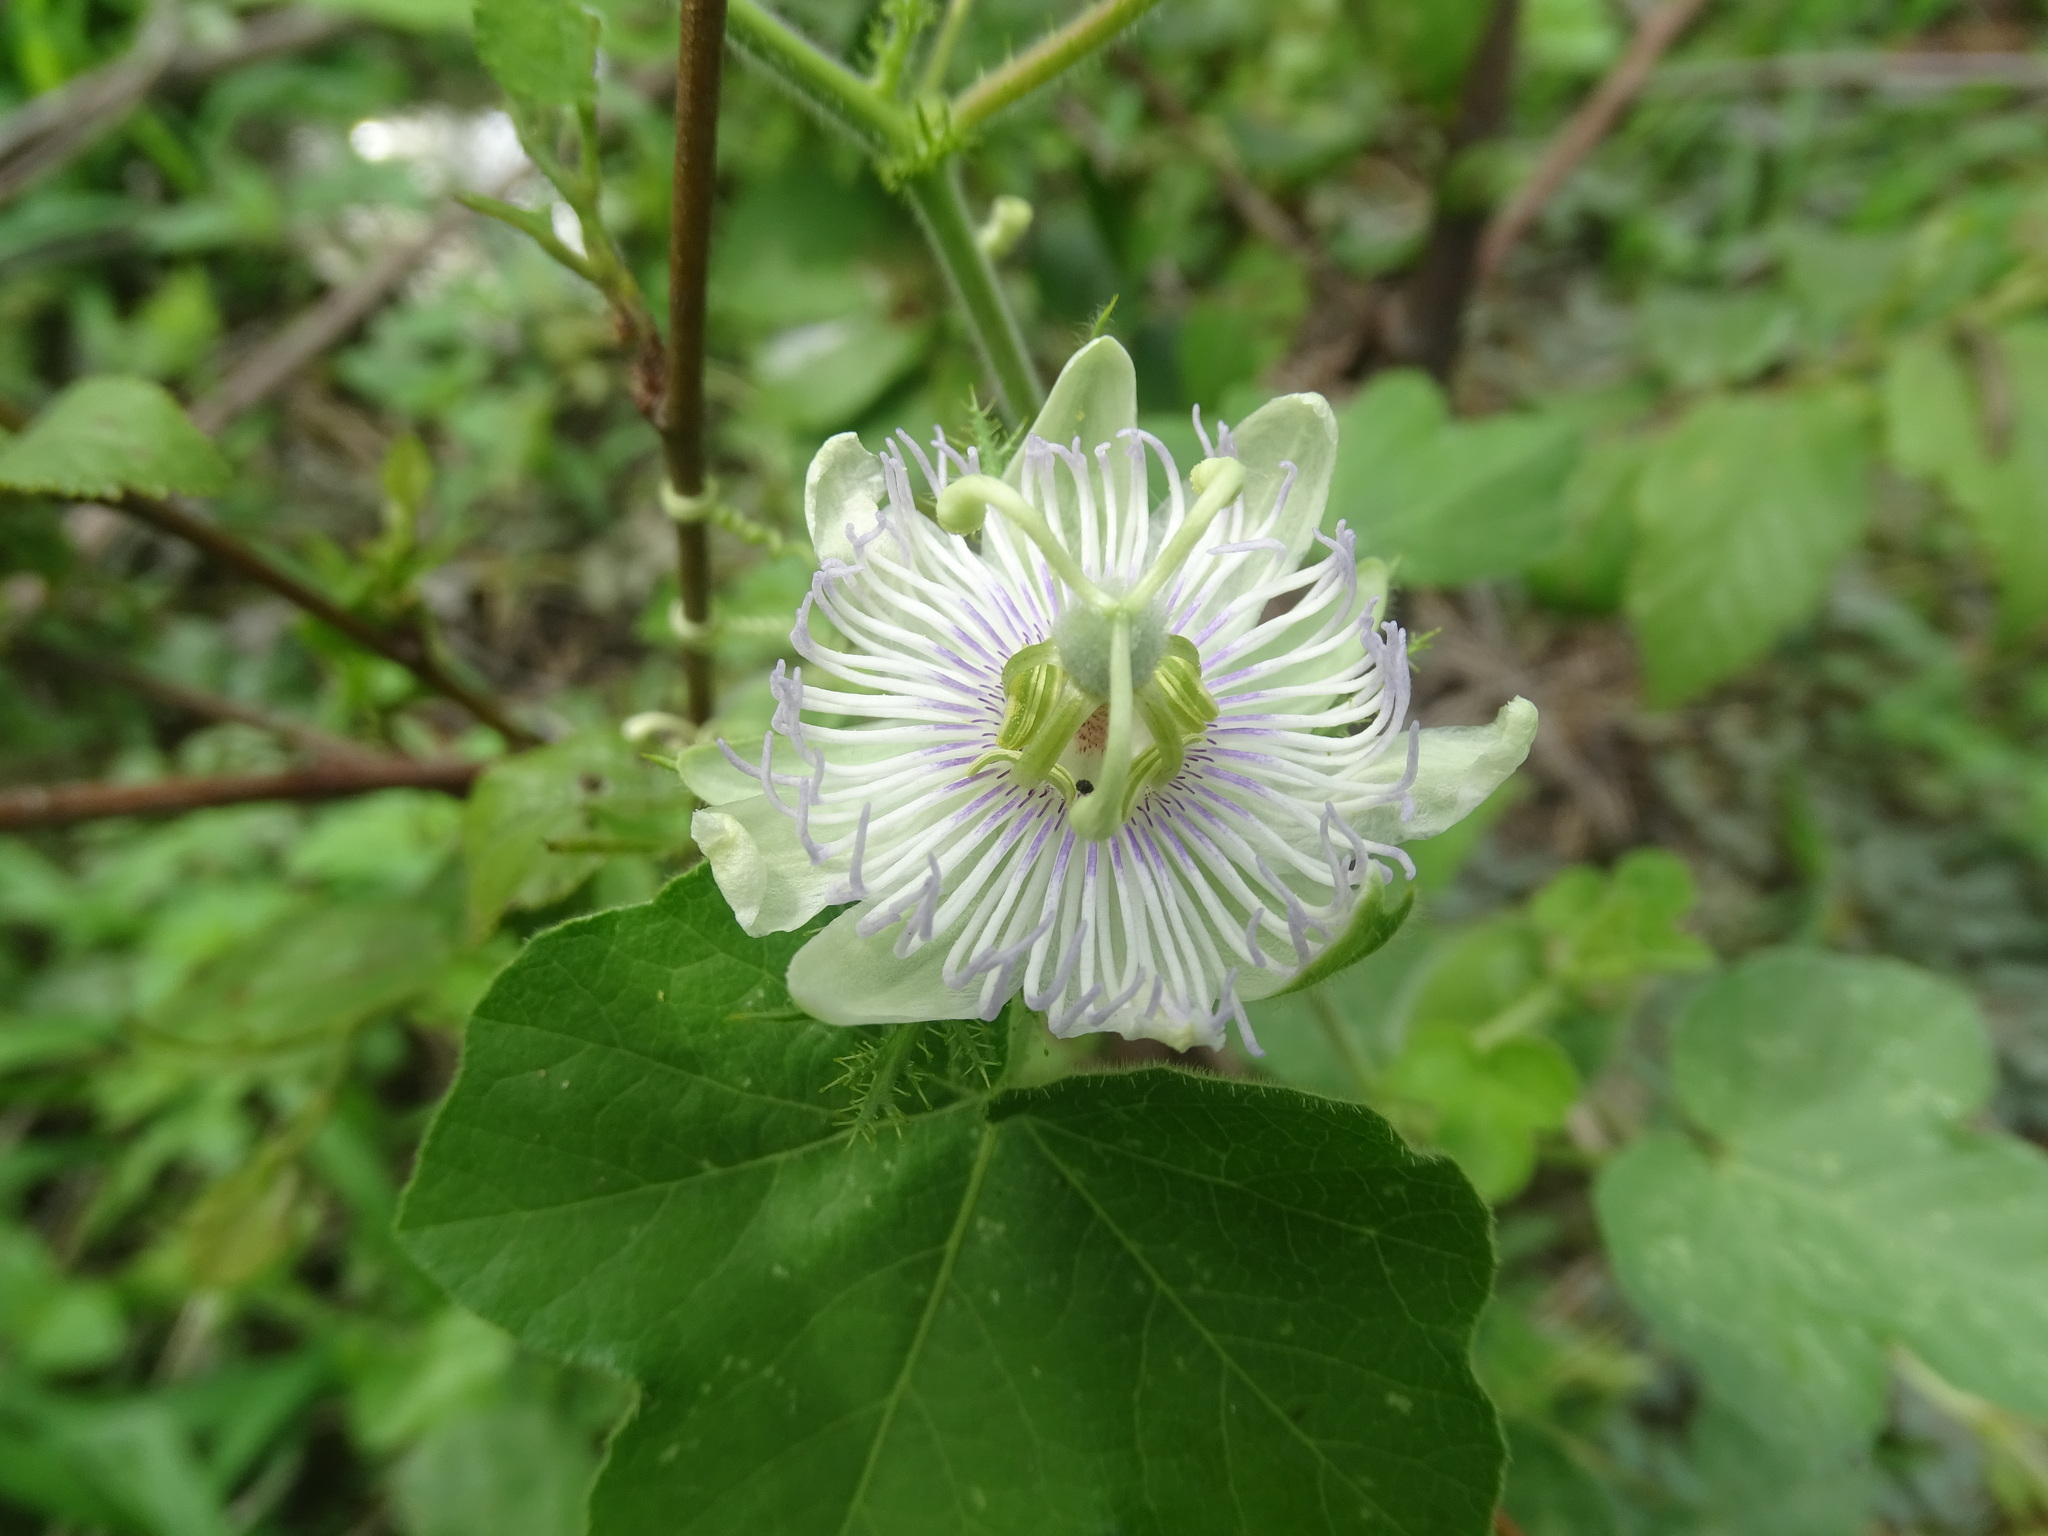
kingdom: Plantae
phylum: Tracheophyta
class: Magnoliopsida
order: Malpighiales
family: Passifloraceae
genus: Passiflora
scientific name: Passiflora foetida
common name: Fetid passionflower
